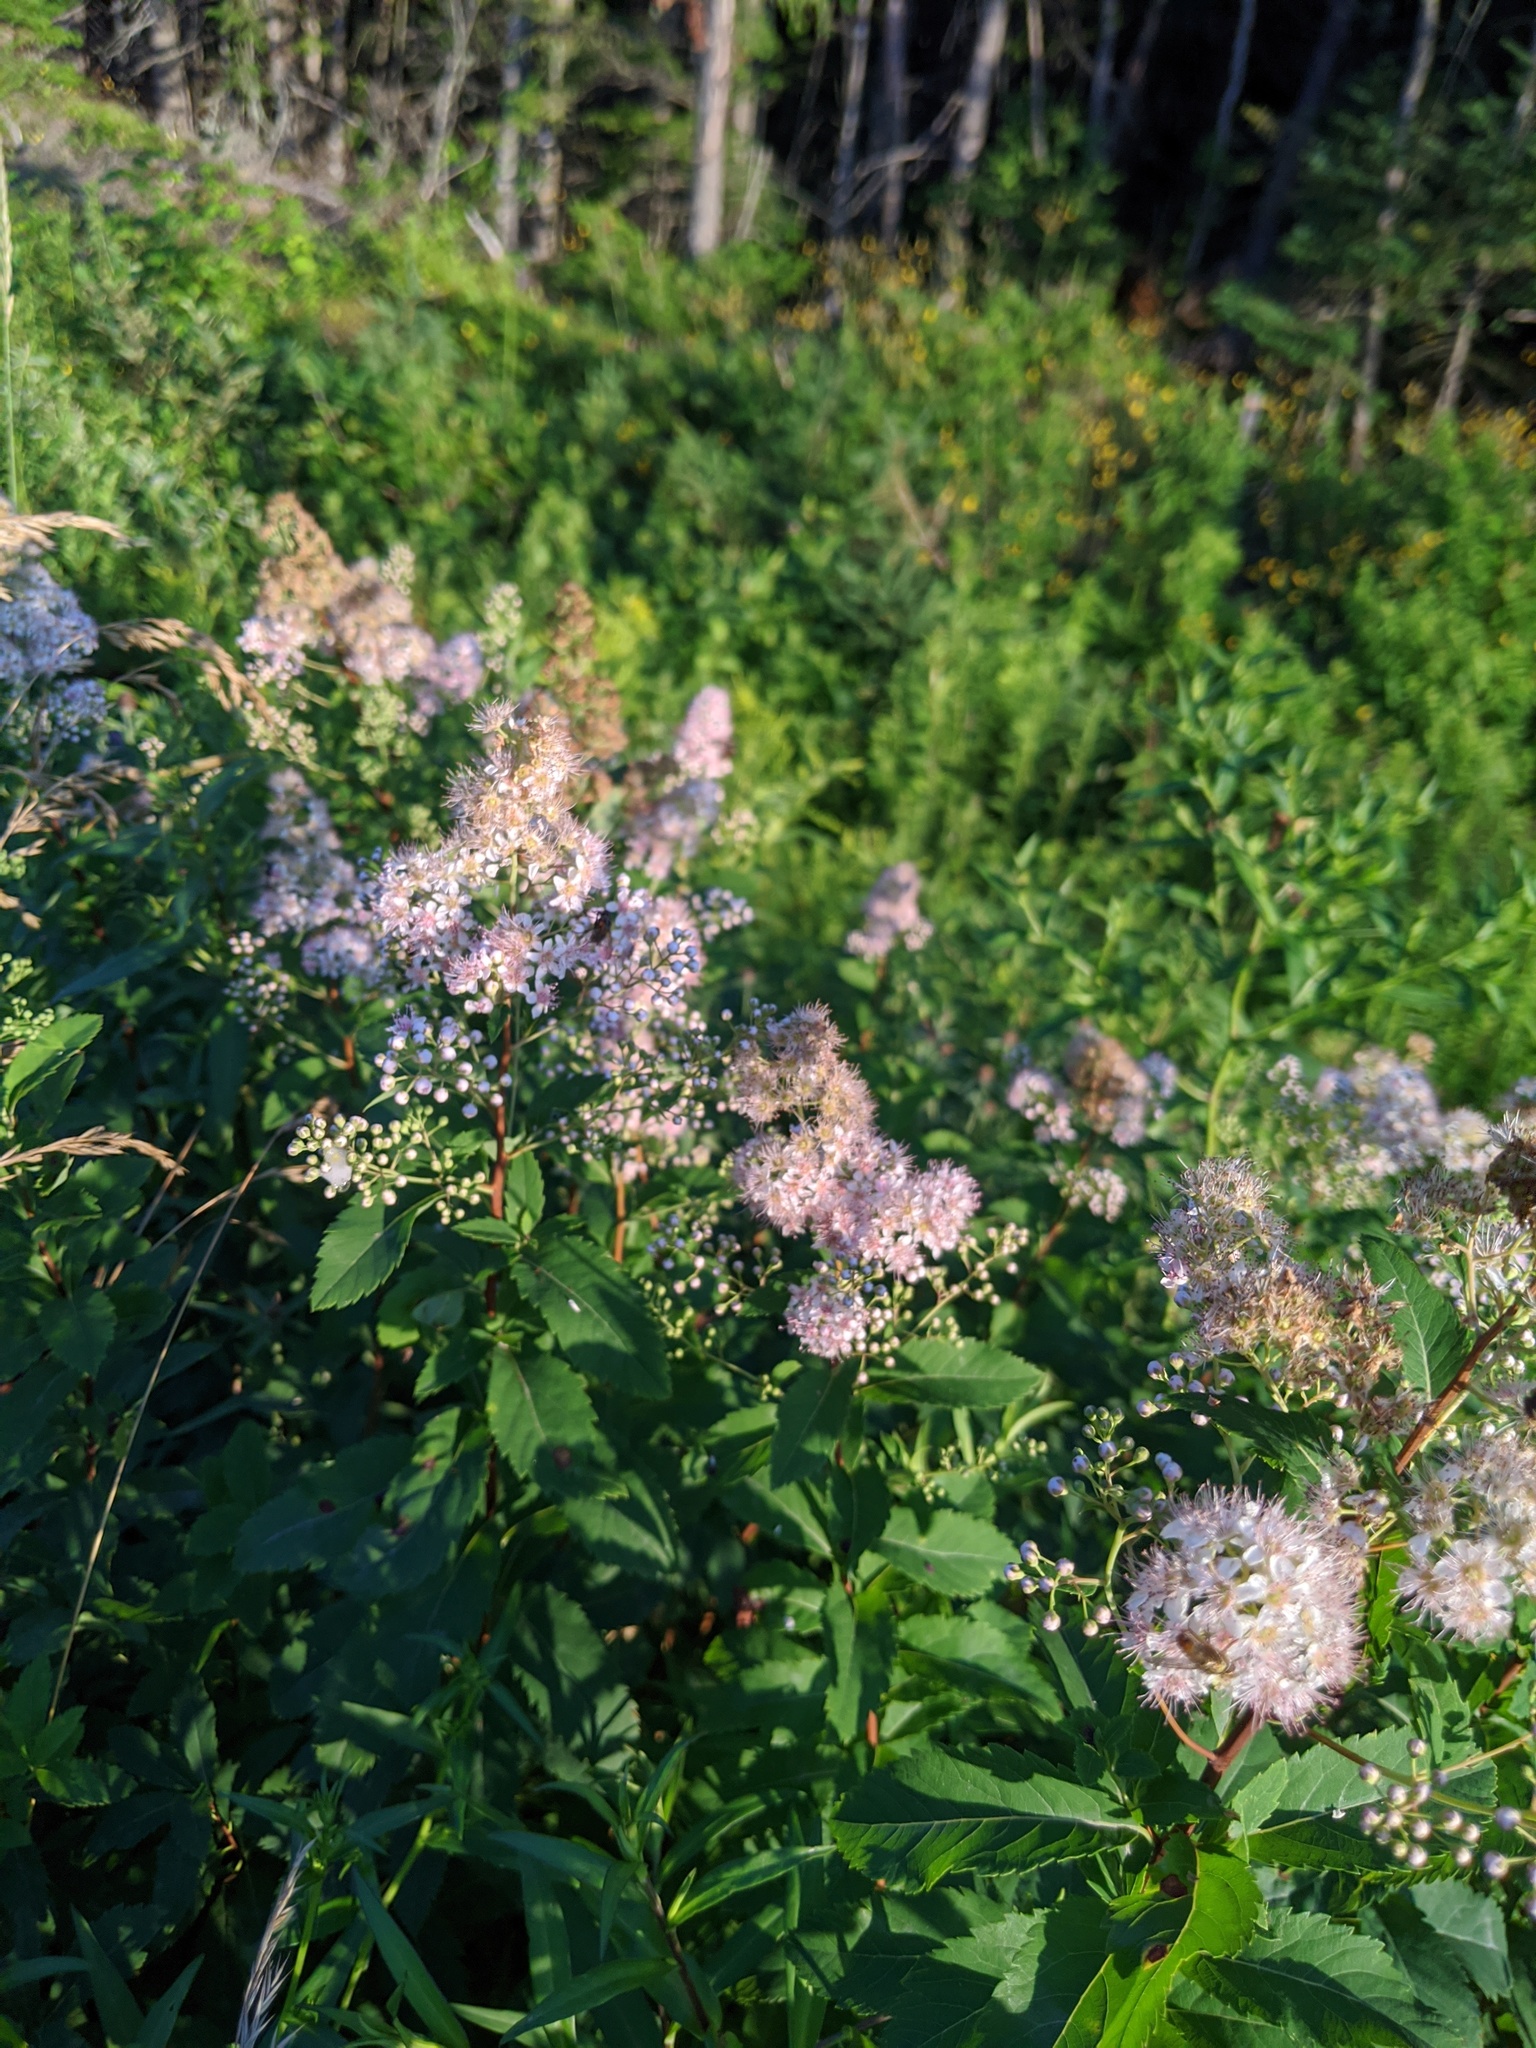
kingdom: Plantae
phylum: Tracheophyta
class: Magnoliopsida
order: Rosales
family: Rosaceae
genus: Spiraea
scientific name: Spiraea alba
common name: Pale bridewort
